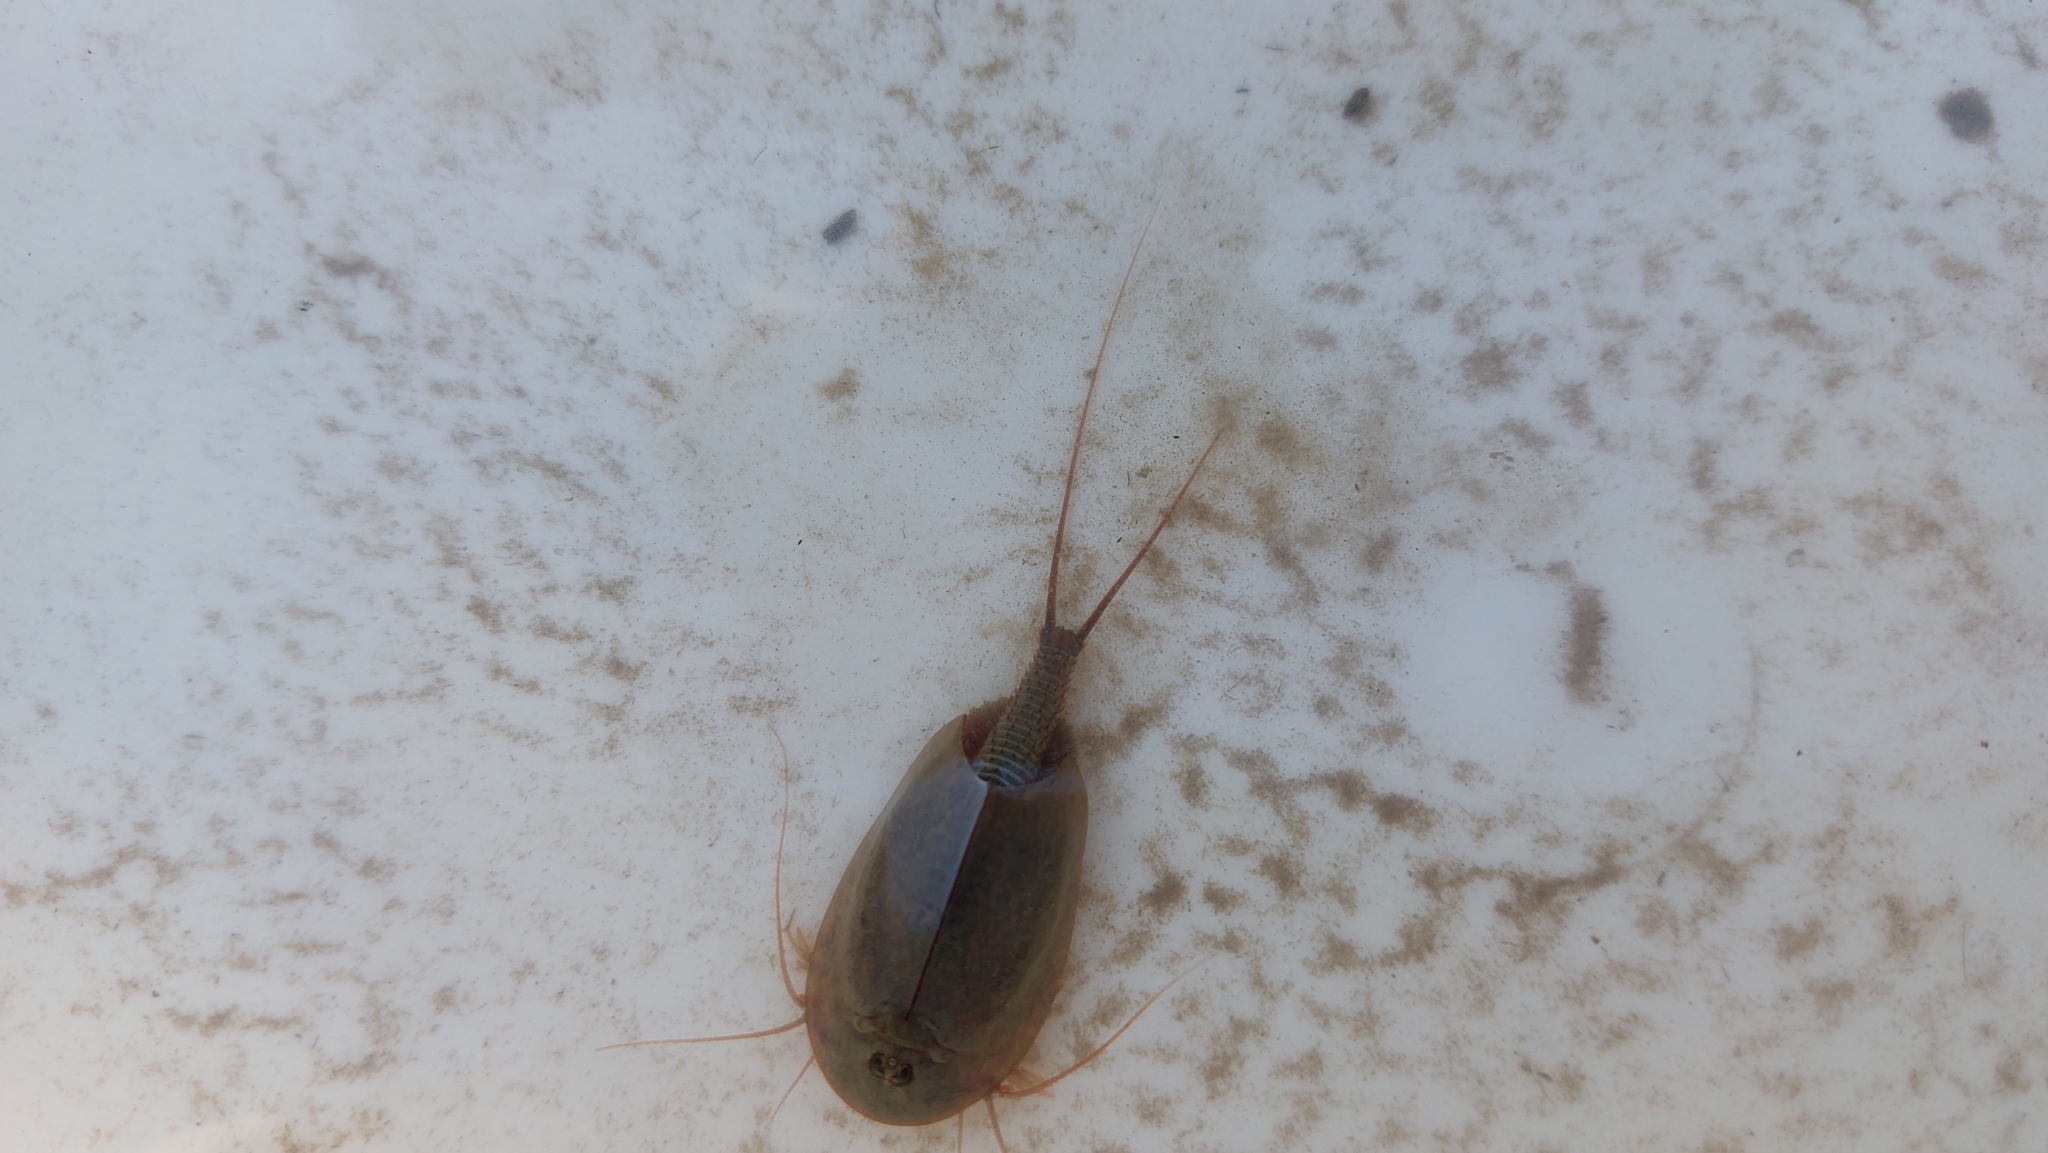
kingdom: Animalia
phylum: Arthropoda
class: Branchiopoda
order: Notostraca
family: Triopsidae
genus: Triops
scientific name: Triops cancriformis
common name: Tadpole shrimp
